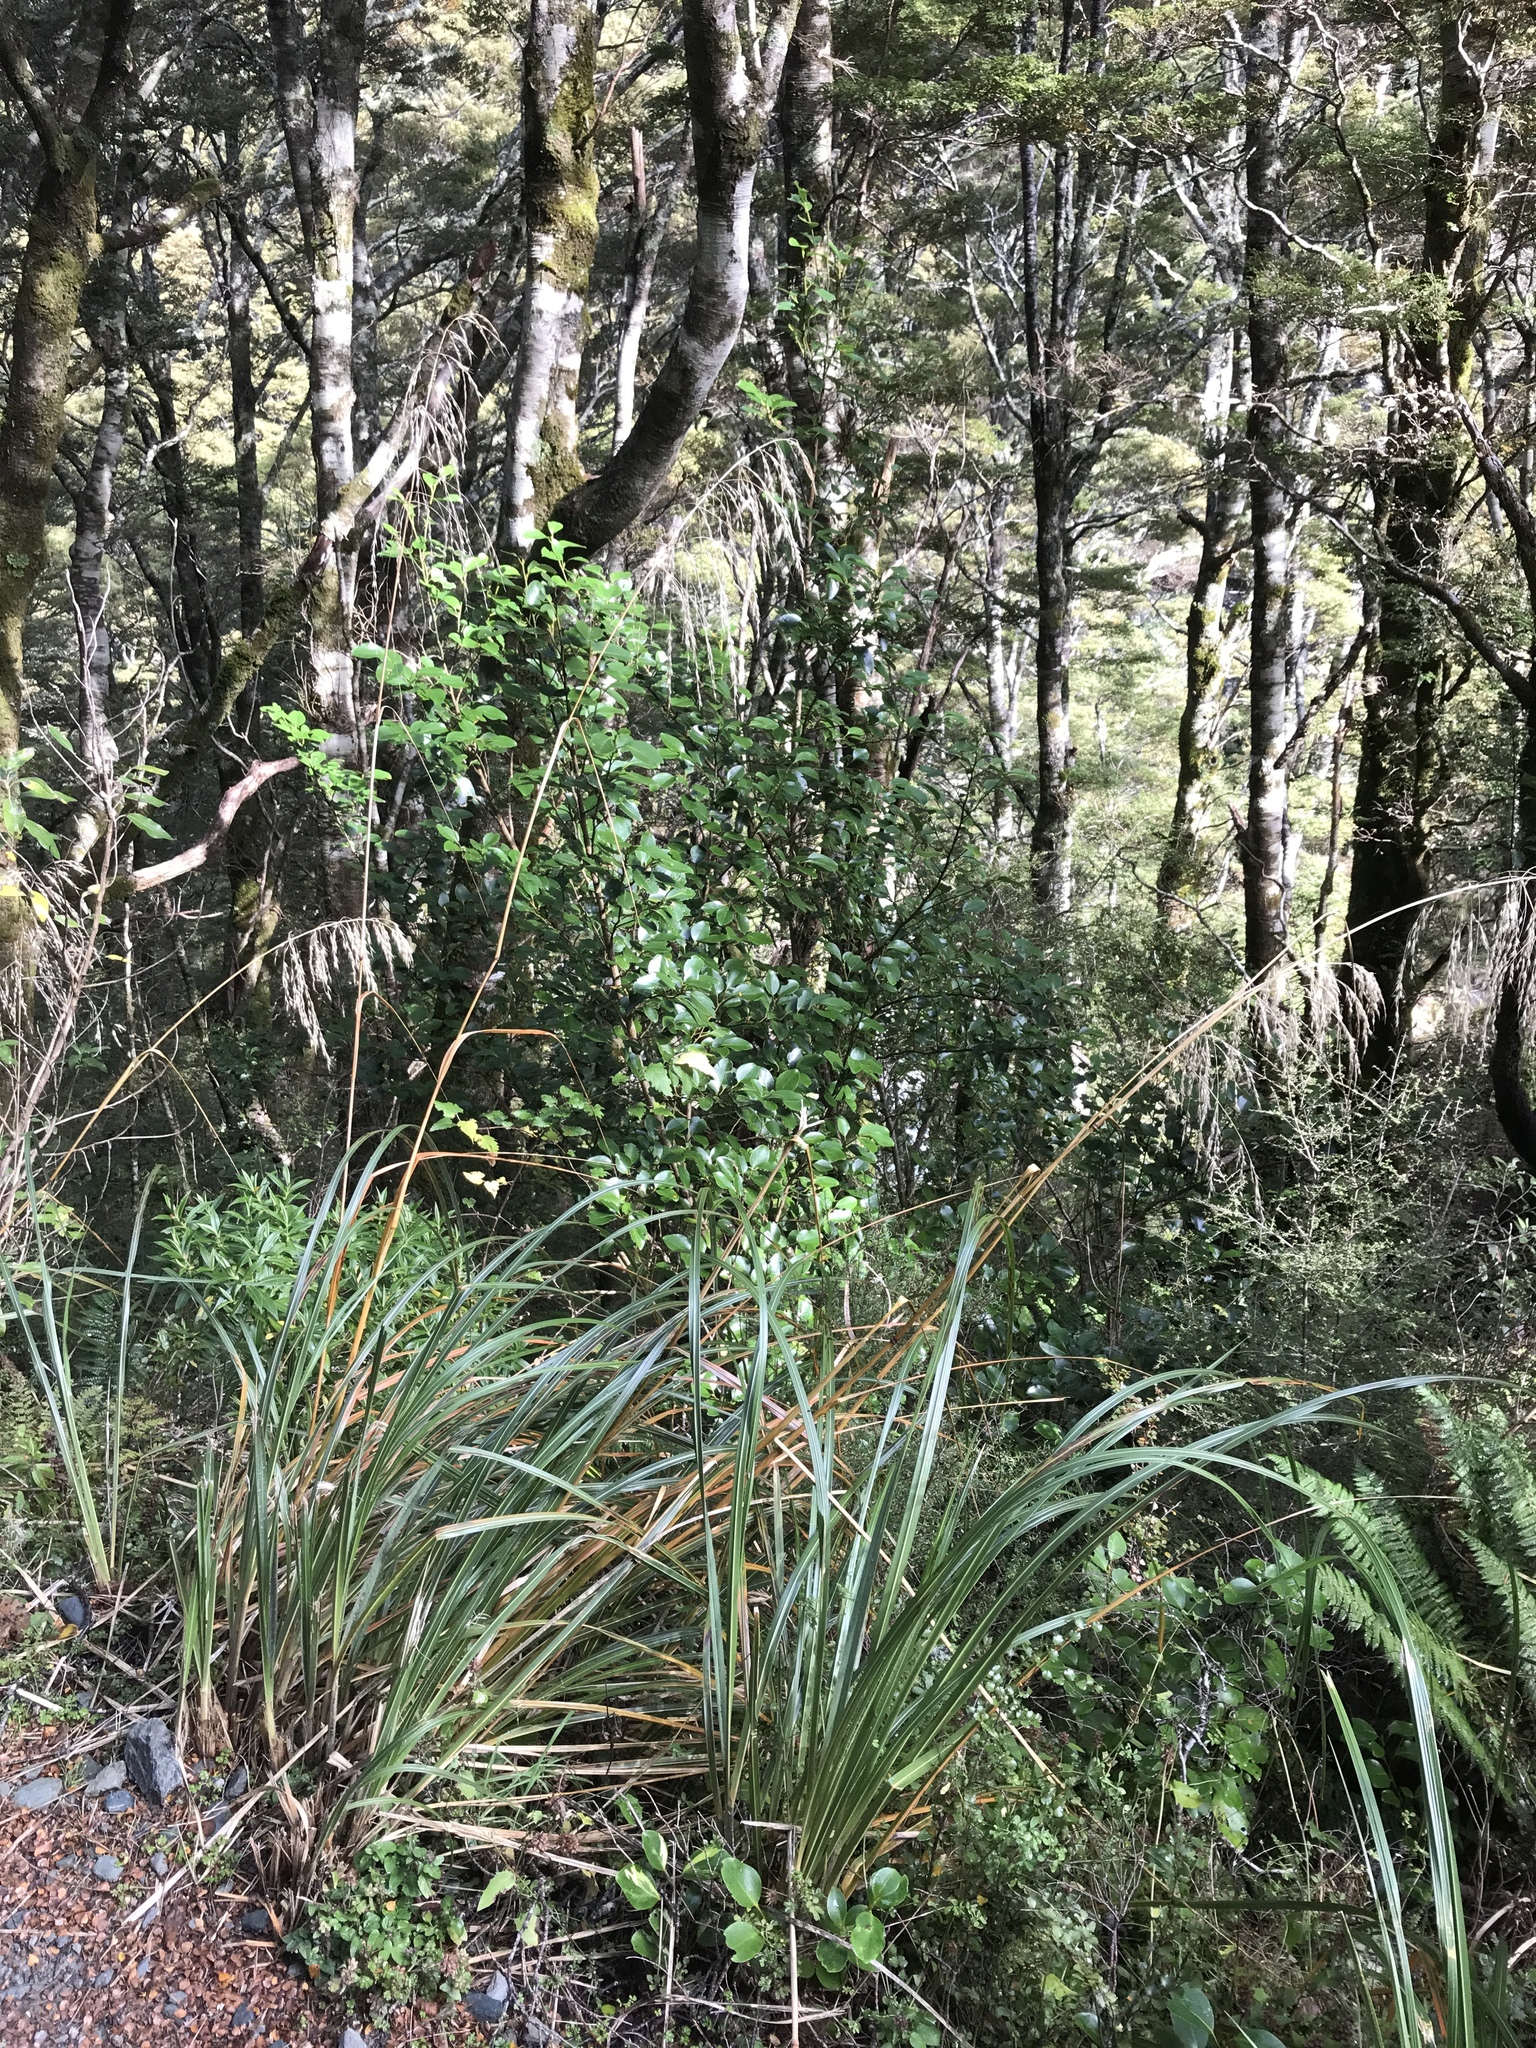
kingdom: Plantae
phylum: Tracheophyta
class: Liliopsida
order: Poales
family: Poaceae
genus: Chionochloa
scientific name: Chionochloa conspicua
